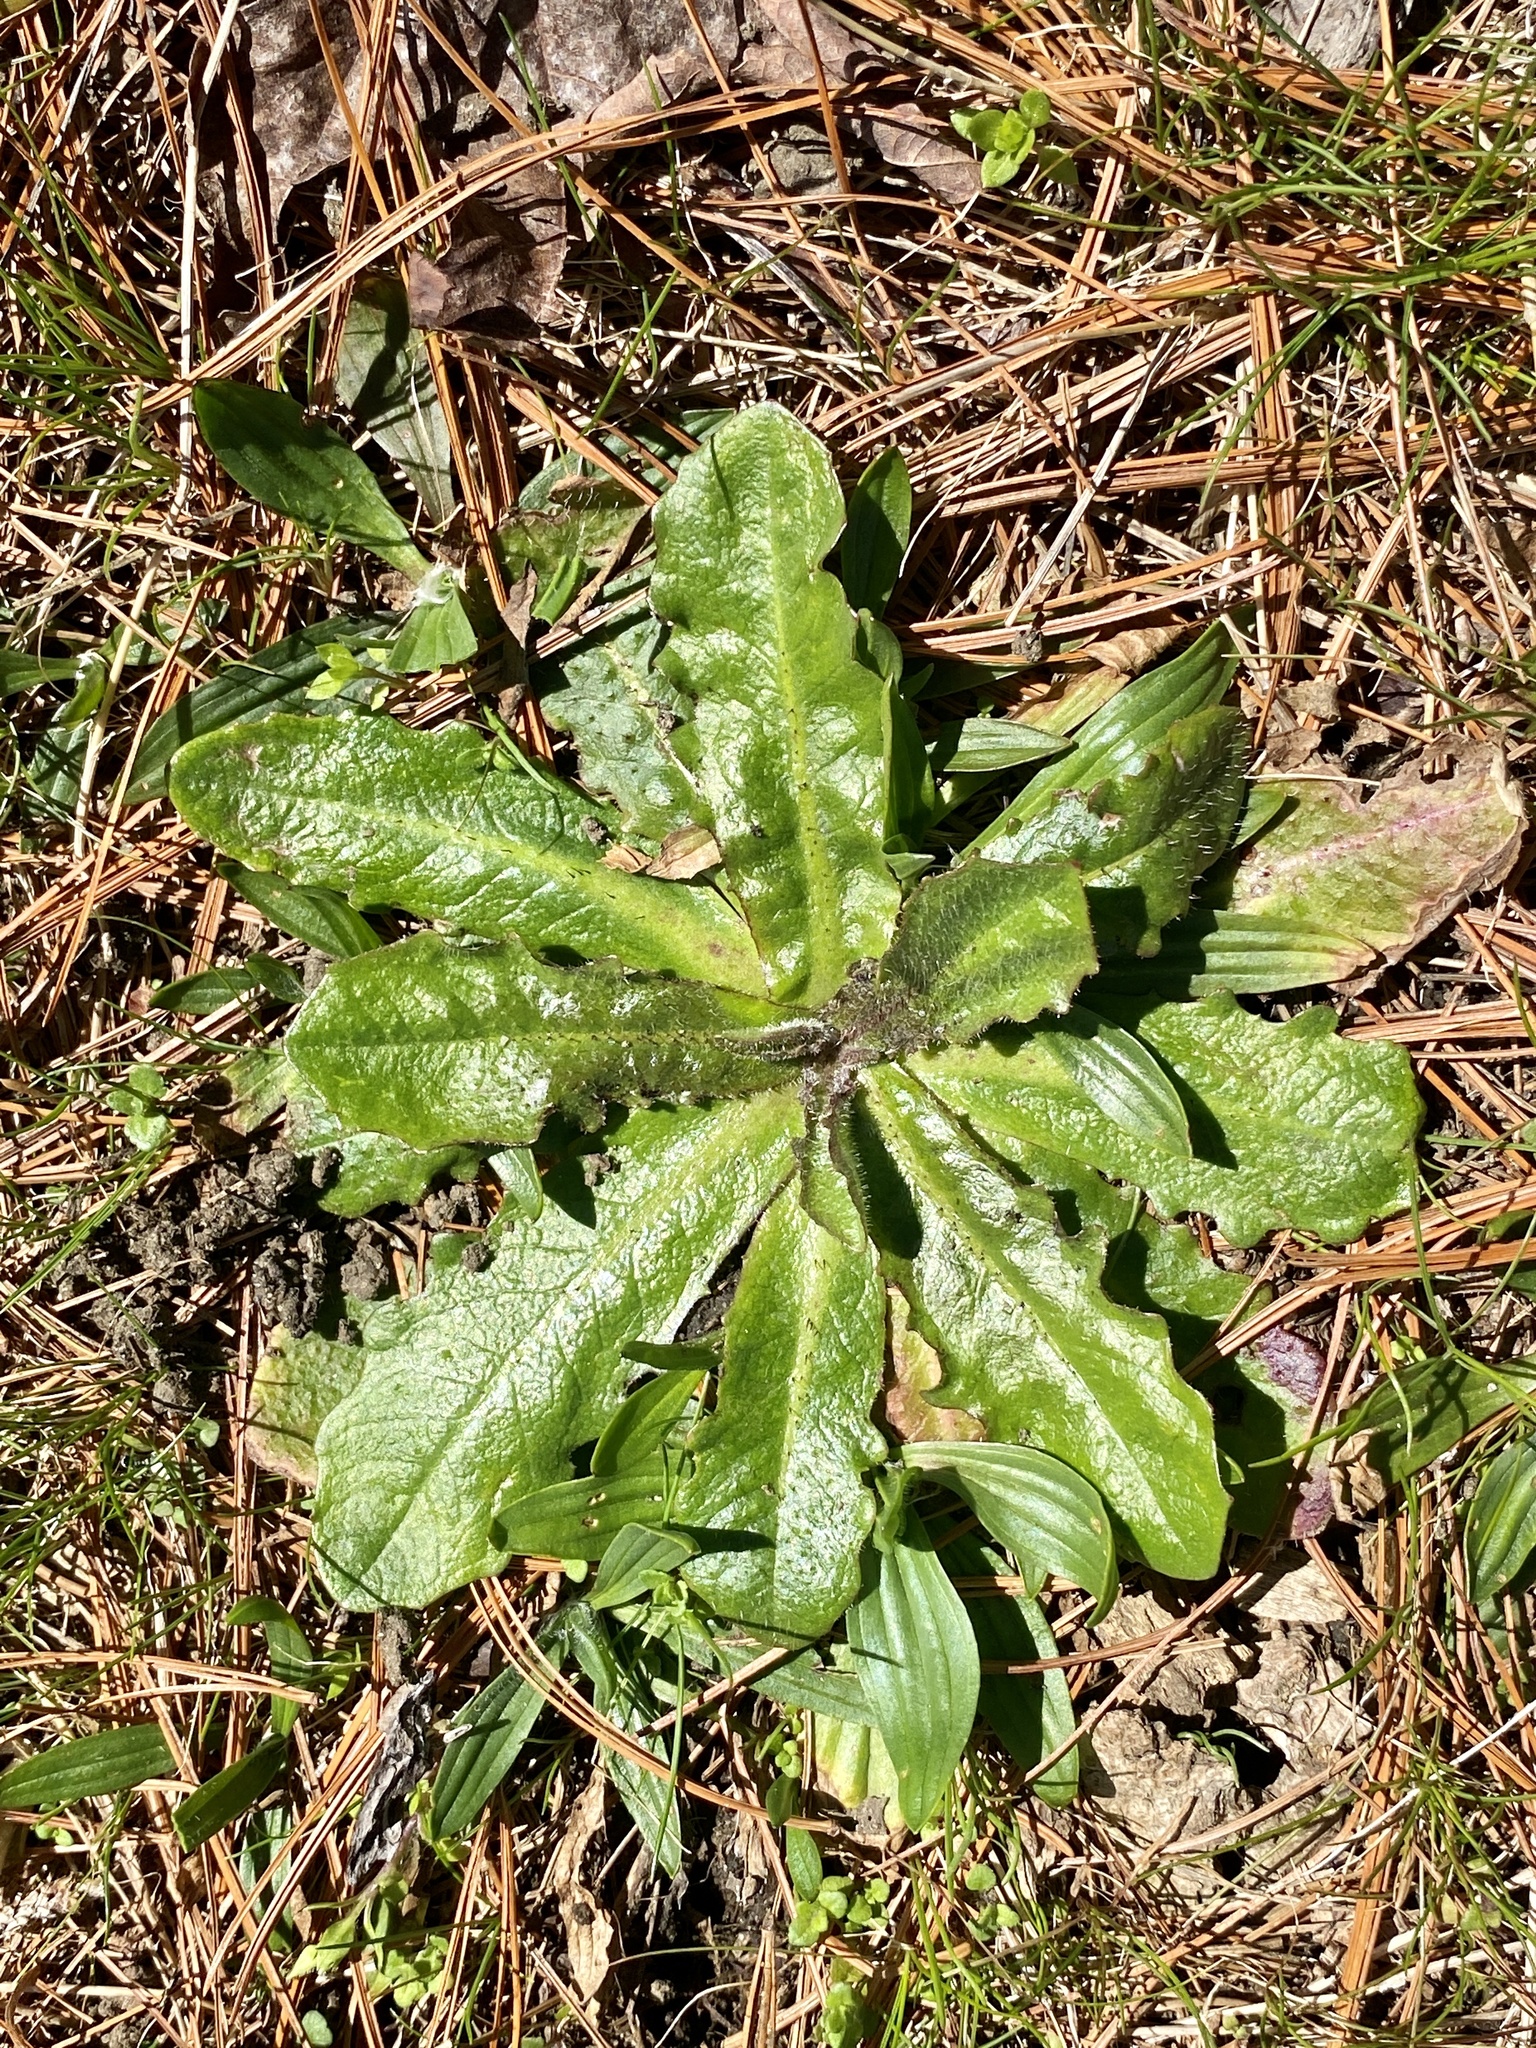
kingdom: Plantae
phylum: Tracheophyta
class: Magnoliopsida
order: Asterales
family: Asteraceae
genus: Hypochaeris
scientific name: Hypochaeris radicata
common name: Flatweed
